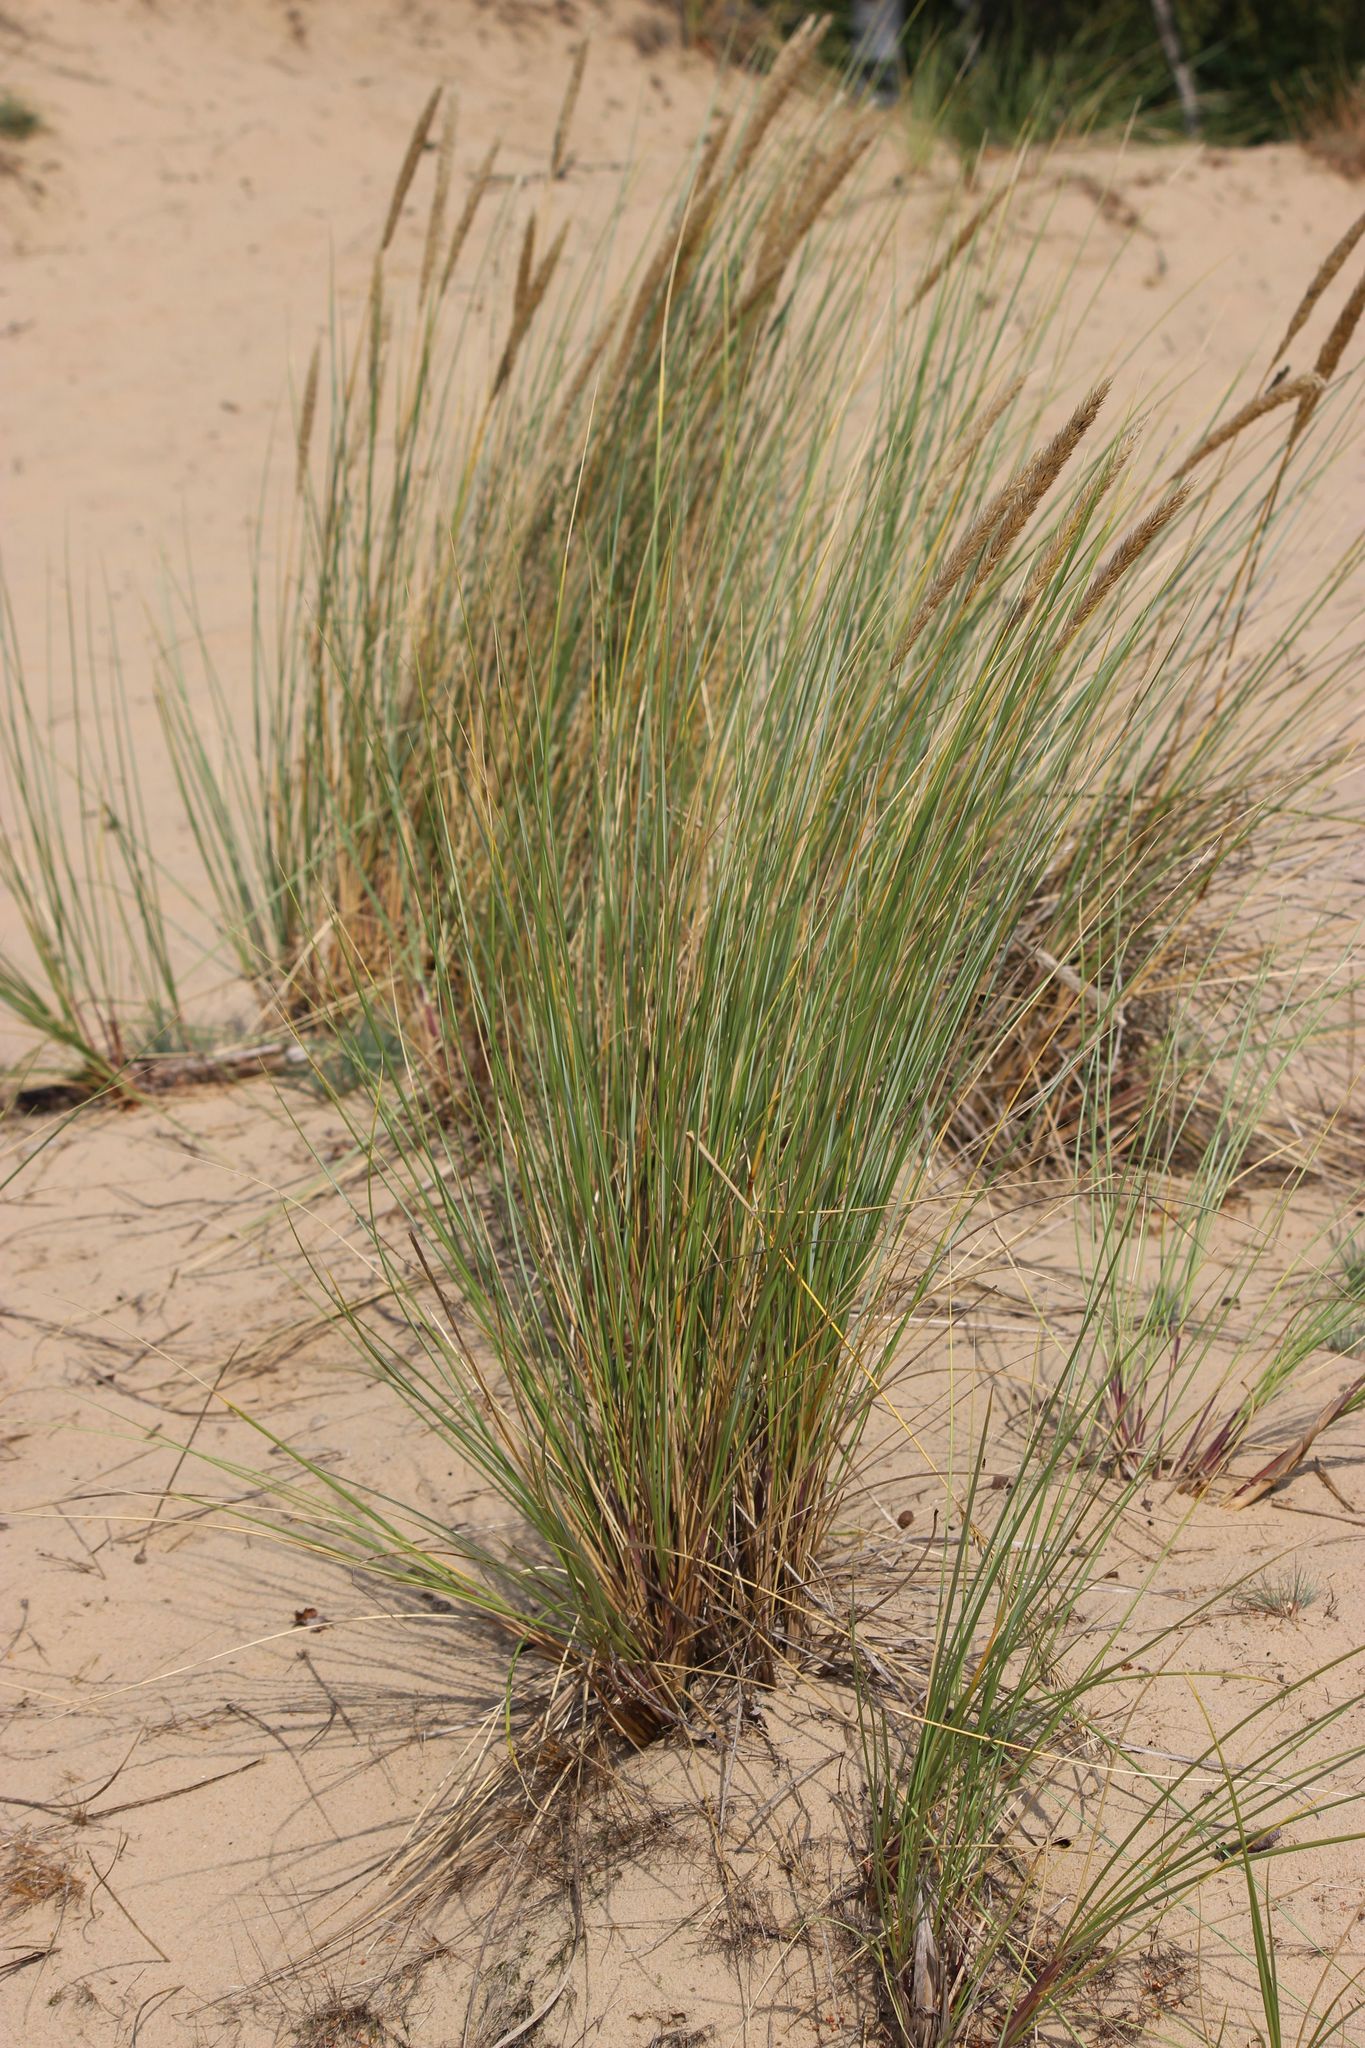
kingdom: Plantae
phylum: Tracheophyta
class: Liliopsida
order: Poales
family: Poaceae
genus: Calamagrostis
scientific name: Calamagrostis arenaria
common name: European beachgrass
